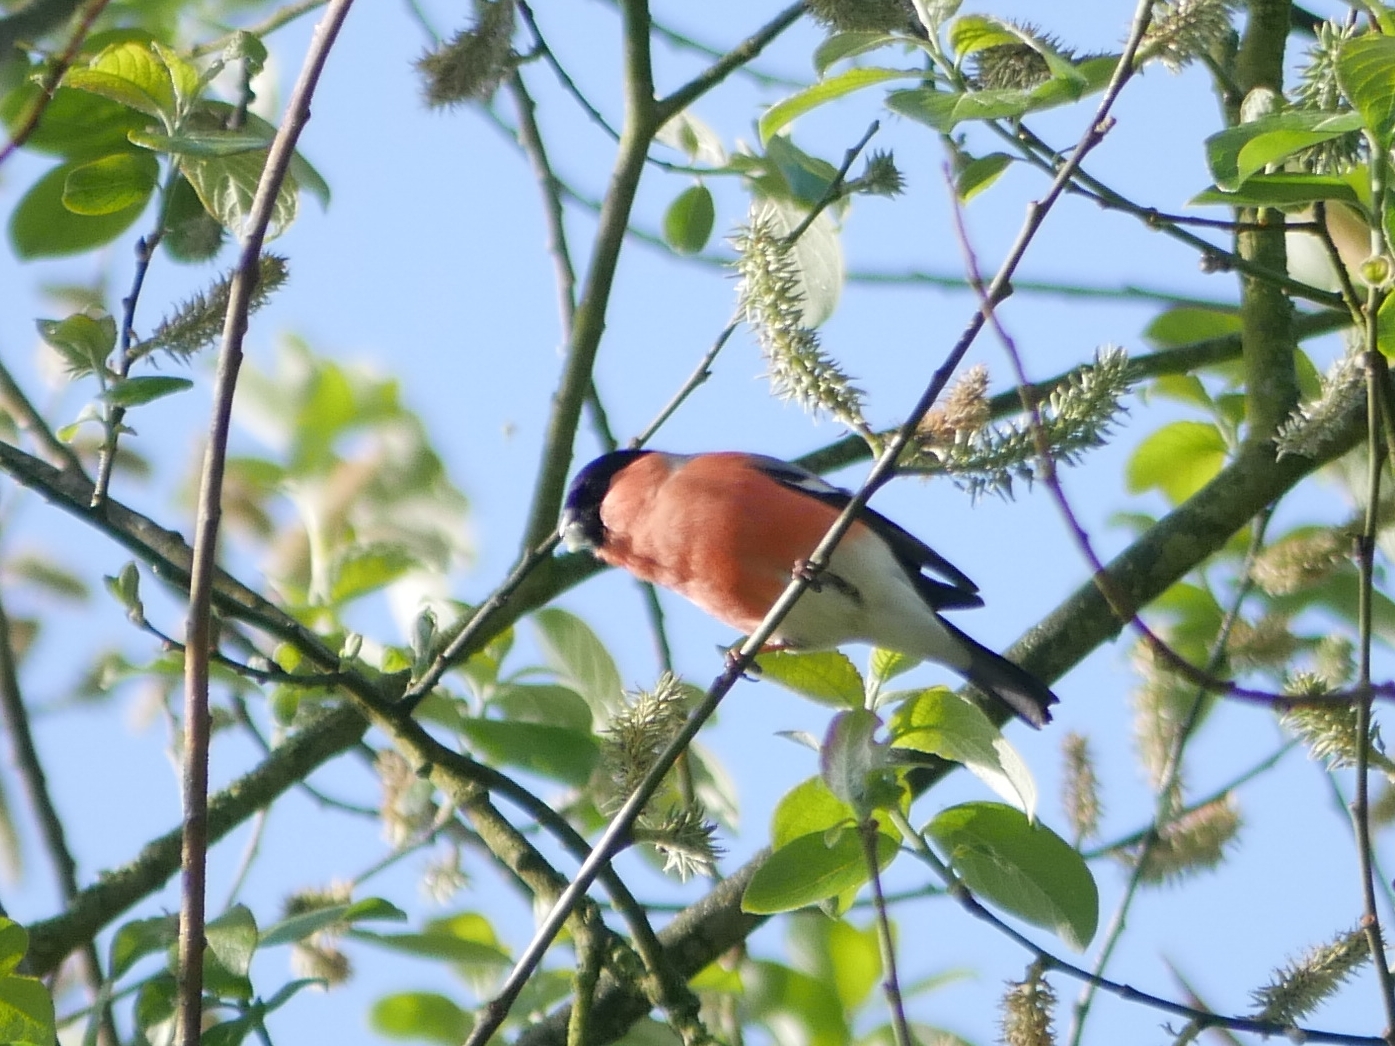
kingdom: Animalia
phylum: Chordata
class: Aves
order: Passeriformes
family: Fringillidae
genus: Pyrrhula
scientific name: Pyrrhula pyrrhula
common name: Eurasian bullfinch
